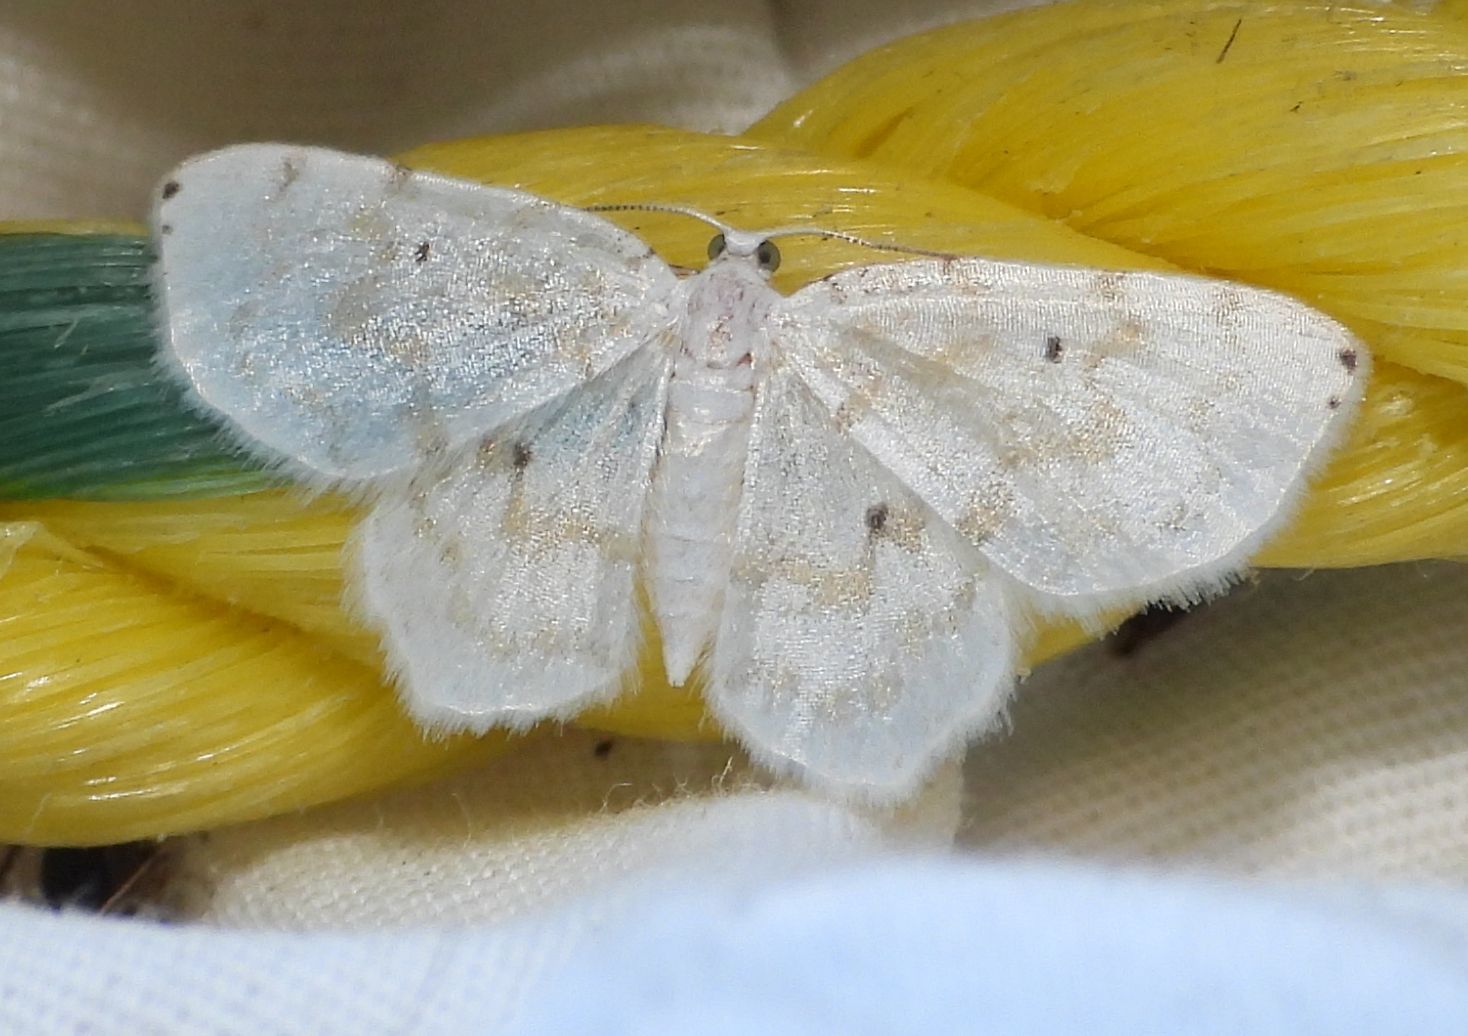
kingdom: Animalia
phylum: Arthropoda
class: Insecta
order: Lepidoptera
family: Geometridae
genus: Hydrelia
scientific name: Hydrelia albifera
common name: Fragile white carpet
